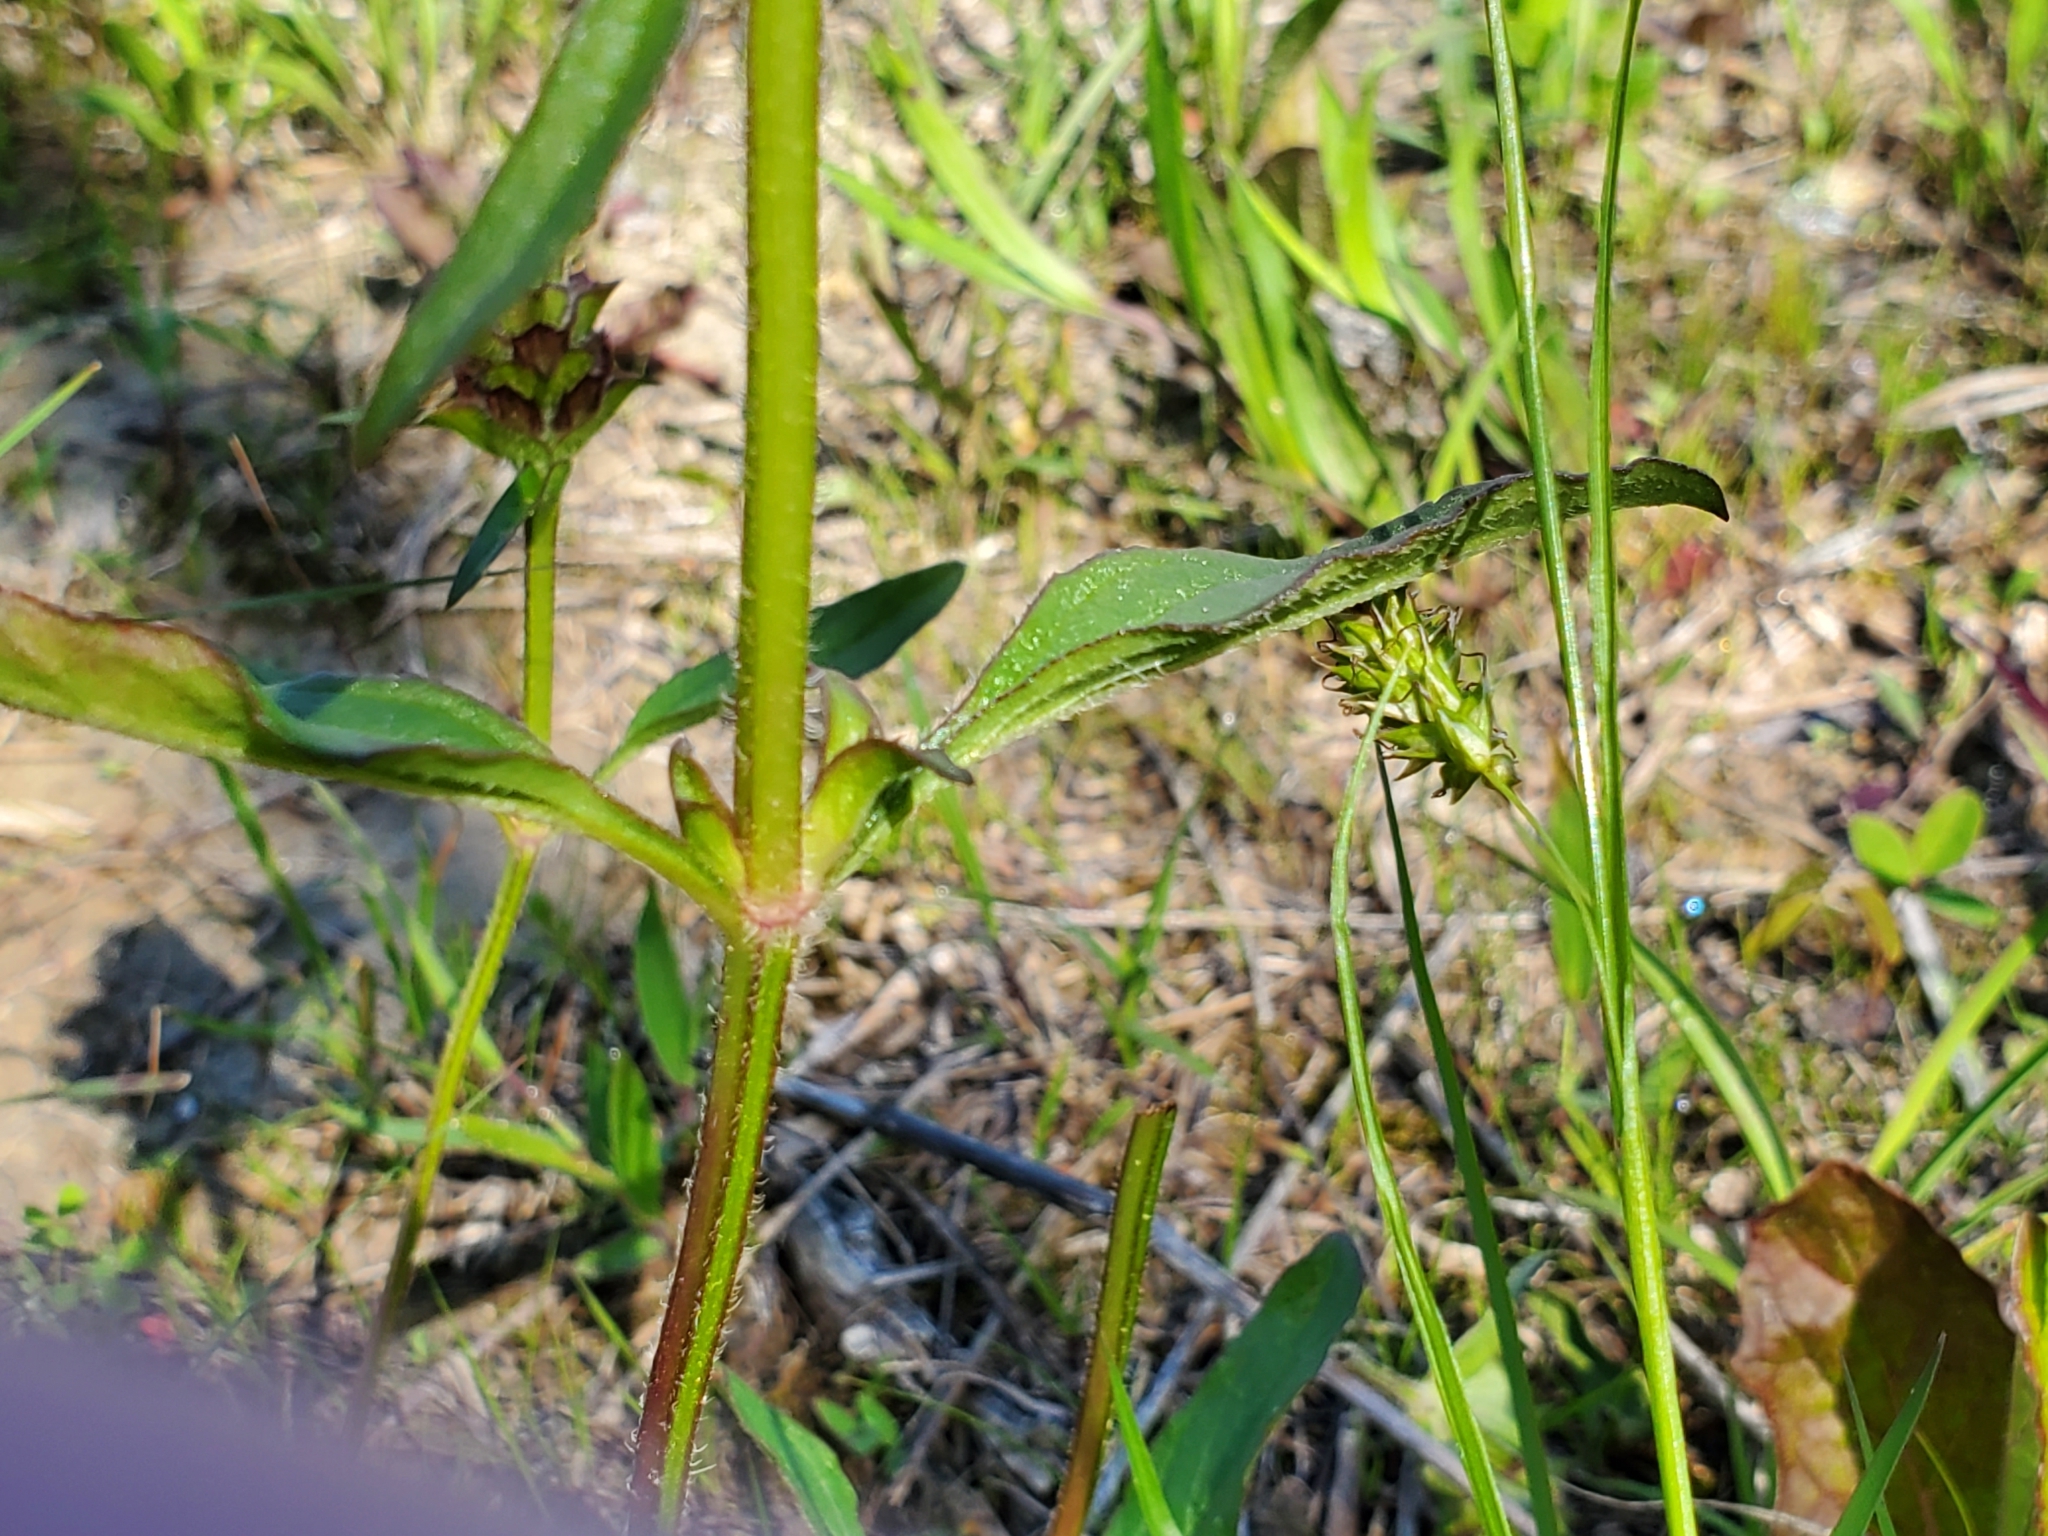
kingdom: Plantae
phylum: Tracheophyta
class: Magnoliopsida
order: Lamiales
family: Lamiaceae
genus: Prunella
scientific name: Prunella vulgaris
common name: Heal-all
